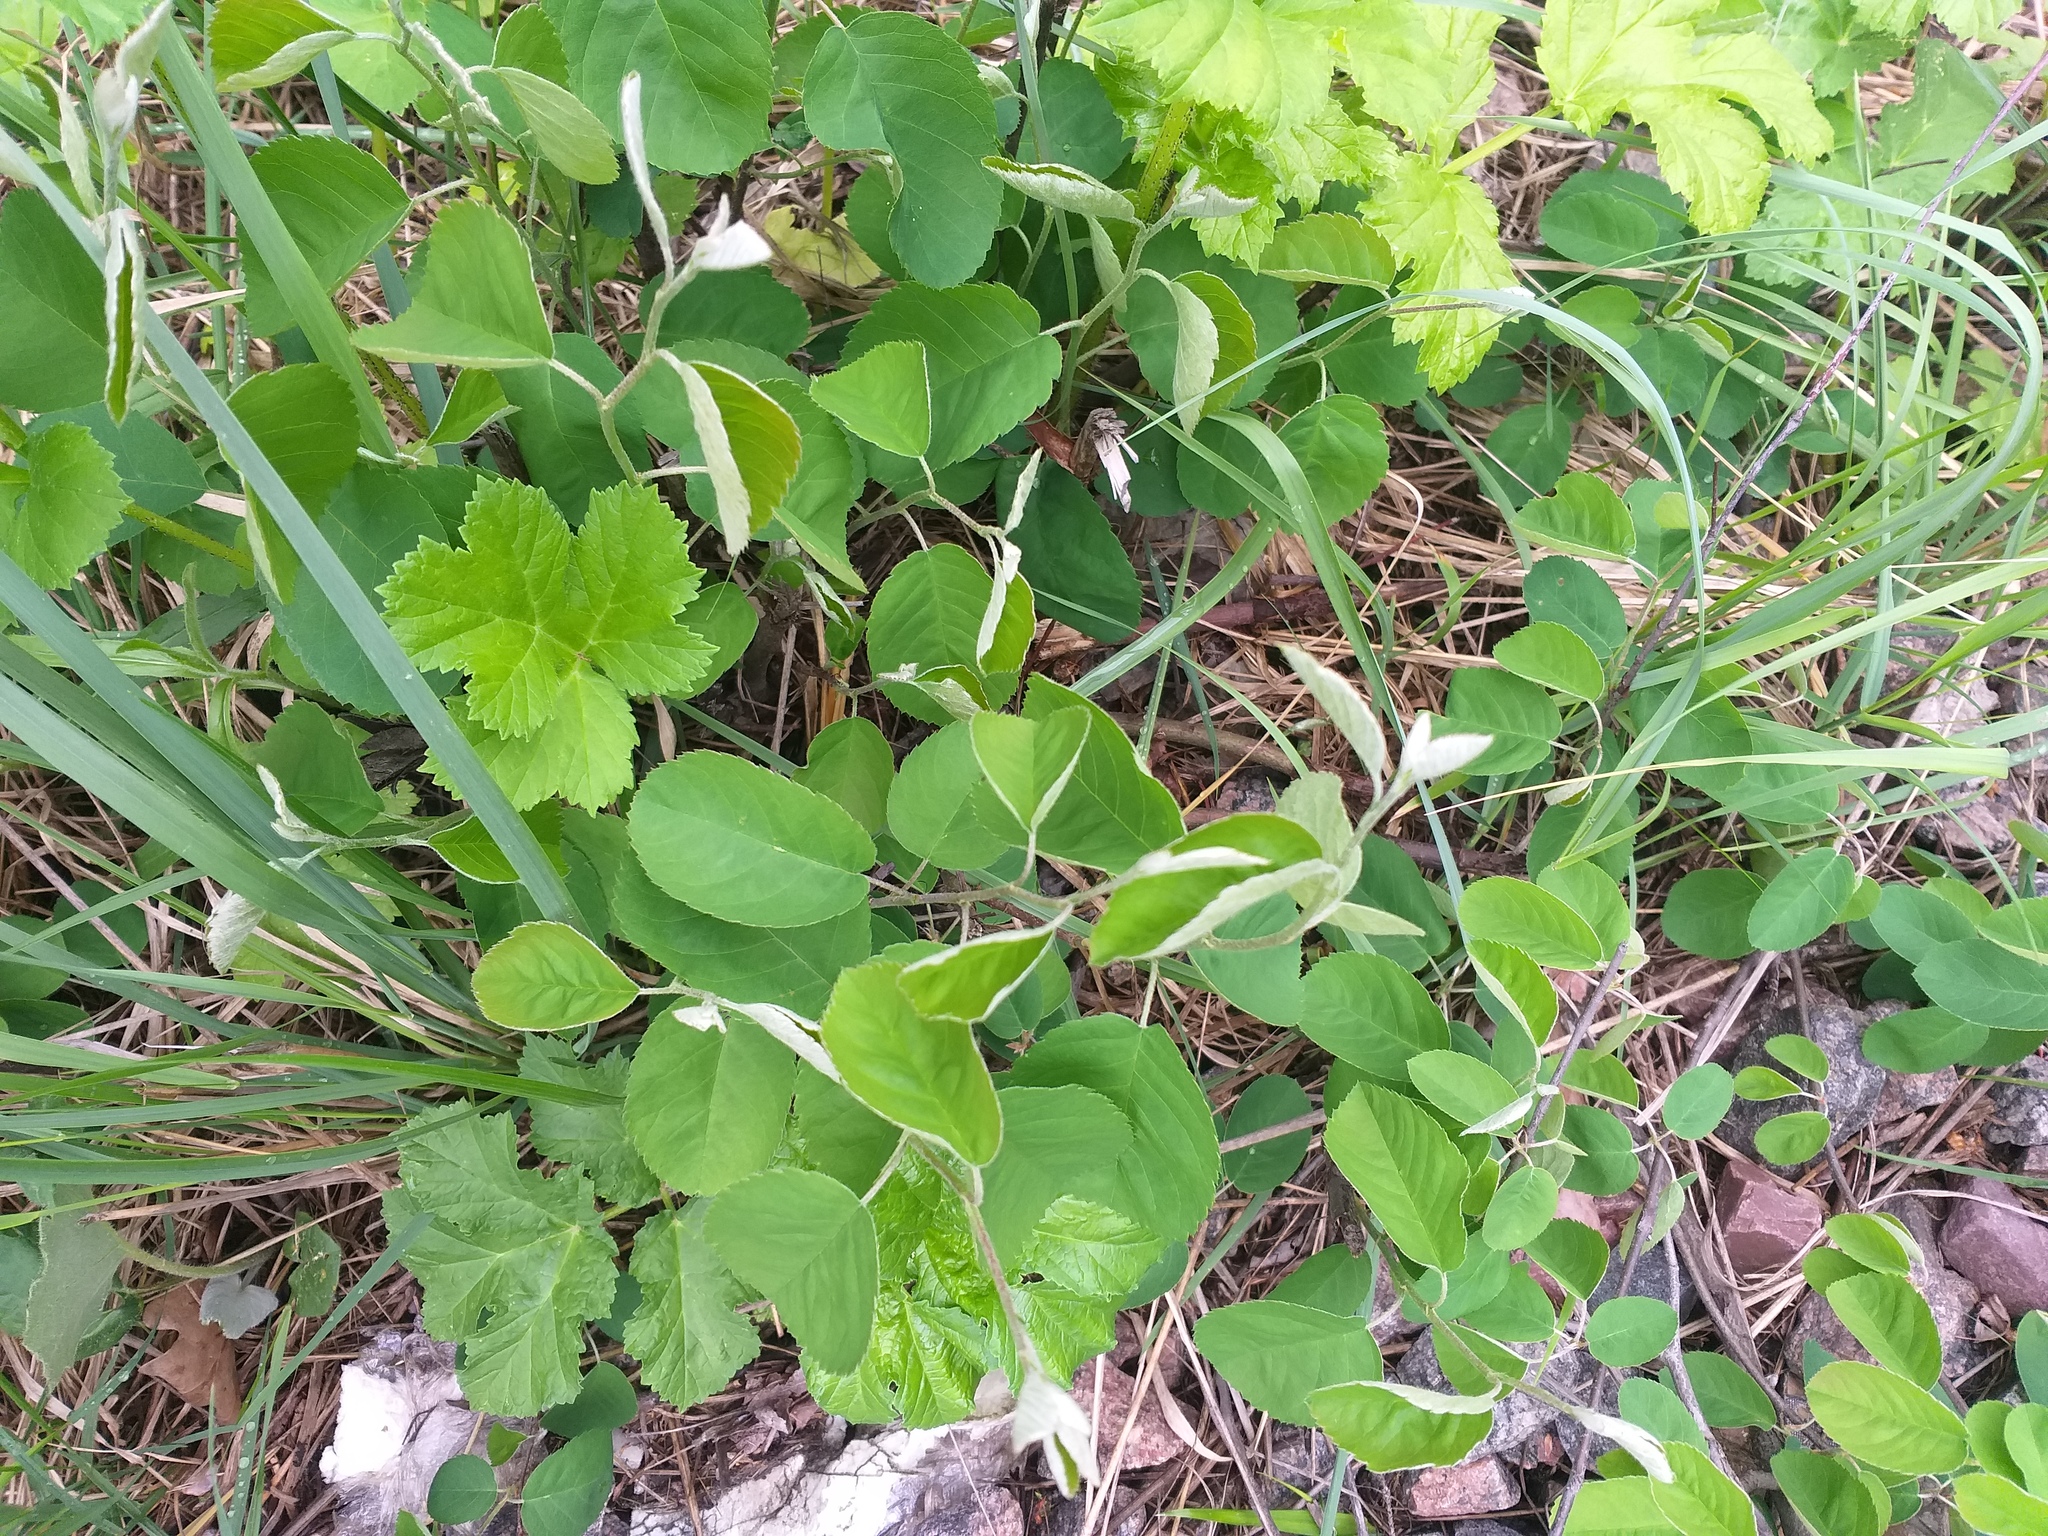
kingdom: Plantae
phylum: Tracheophyta
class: Magnoliopsida
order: Rosales
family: Rosaceae
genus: Amelanchier
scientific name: Amelanchier
